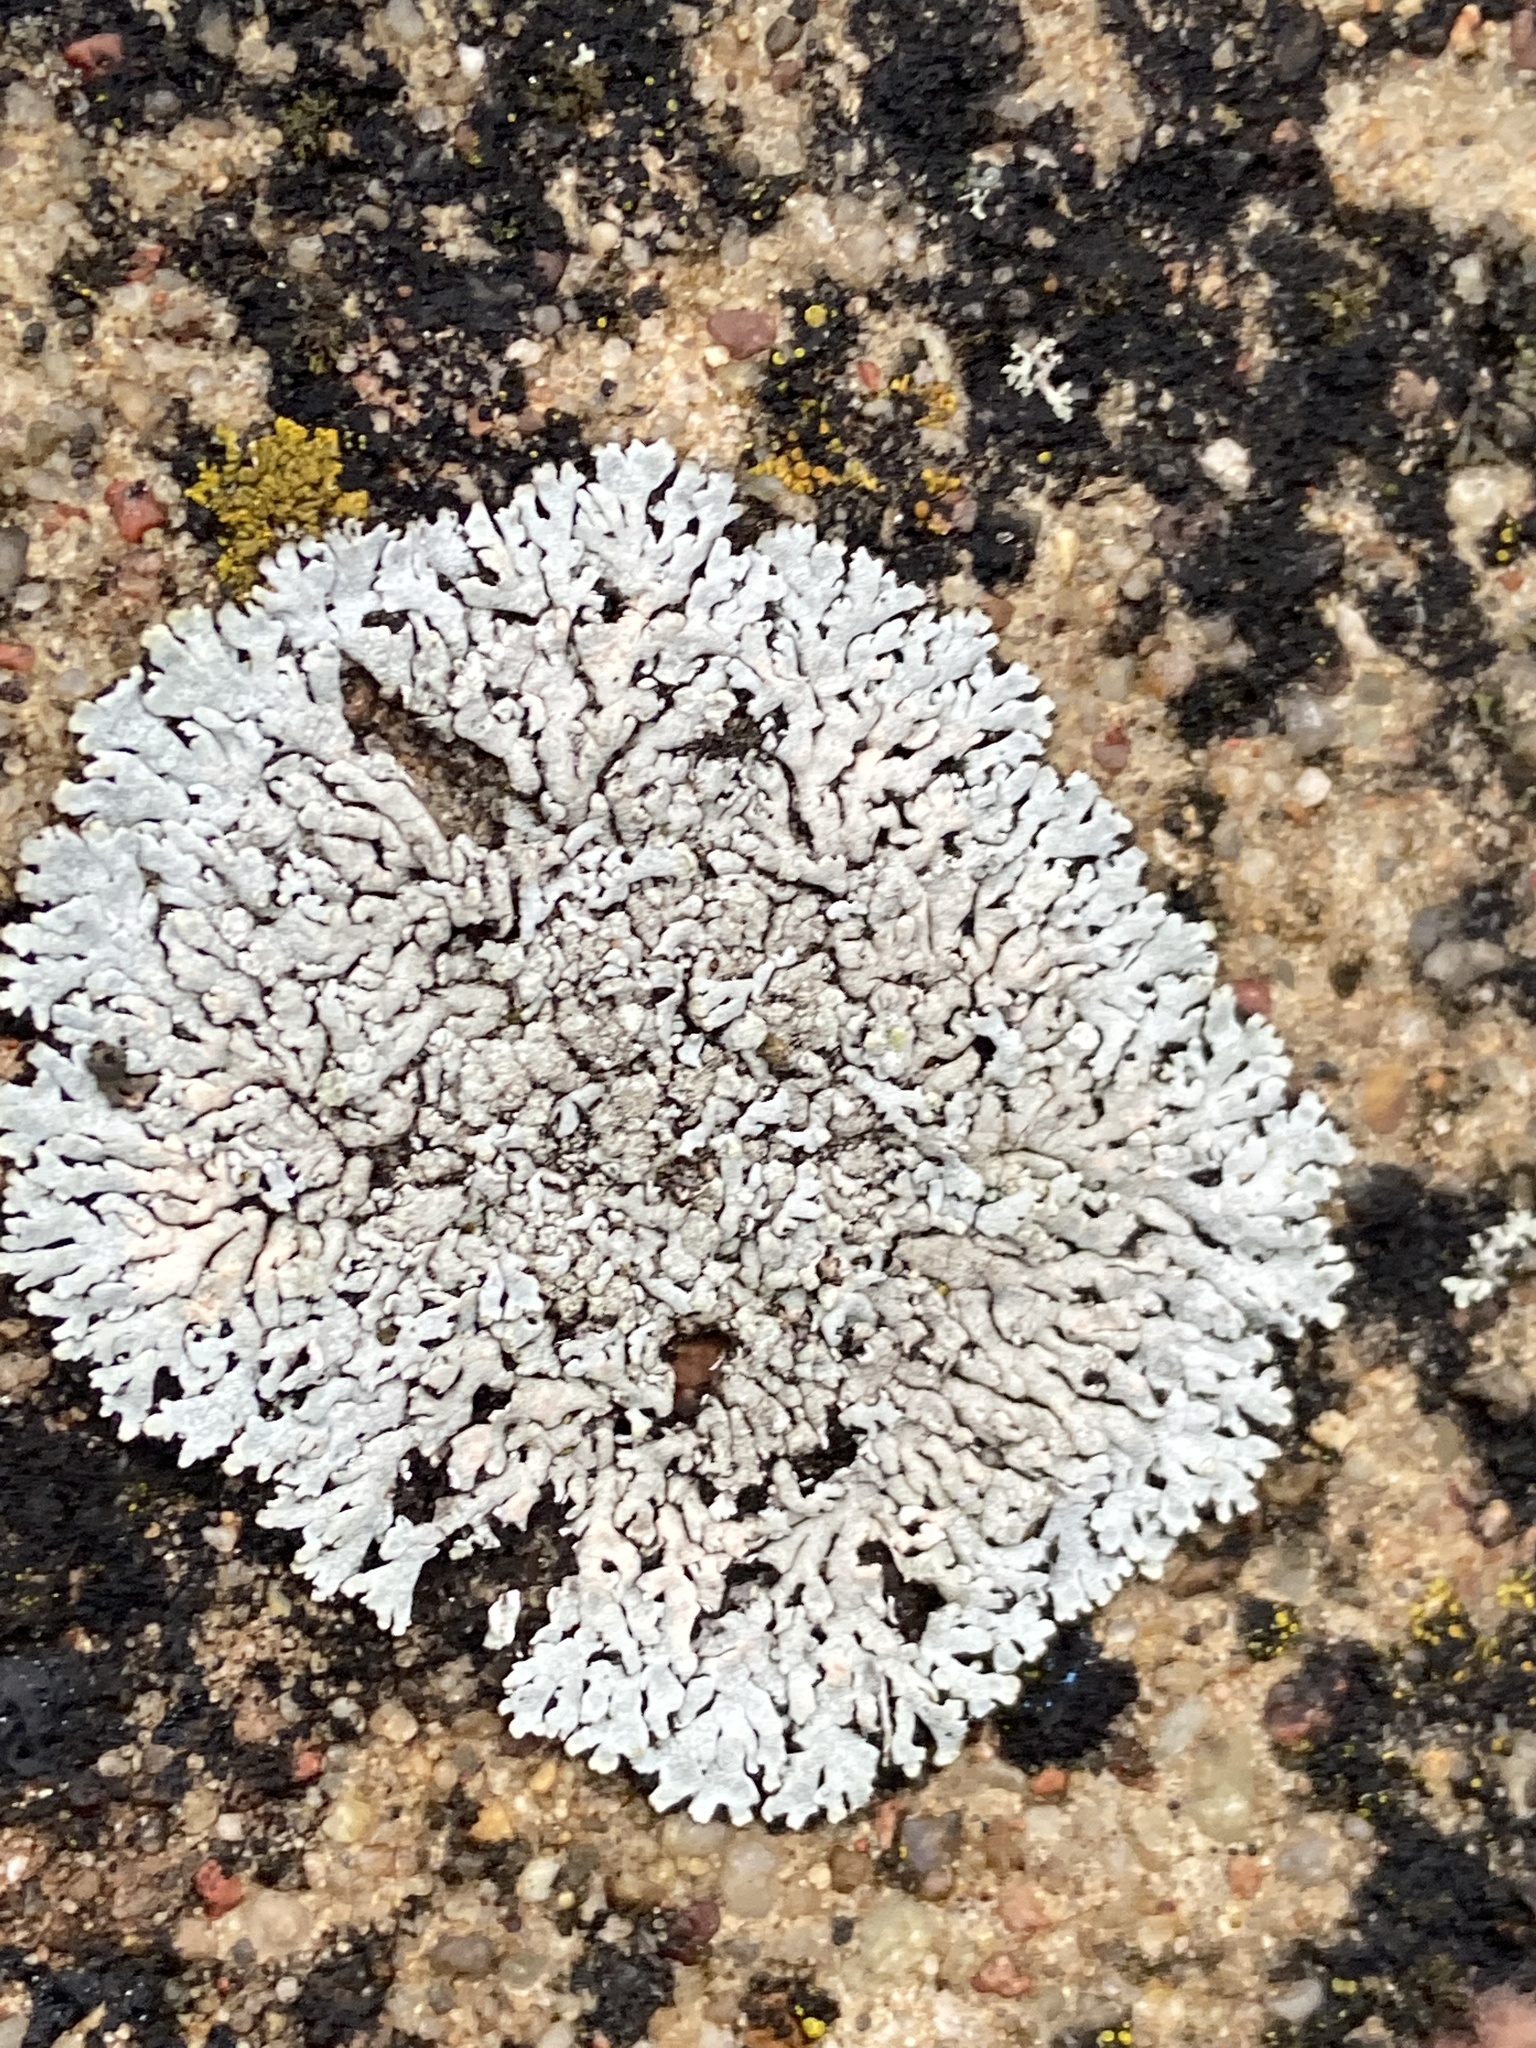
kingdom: Fungi
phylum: Ascomycota
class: Lecanoromycetes
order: Caliciales
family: Physciaceae
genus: Physcia
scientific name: Physcia caesia
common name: Blue-gray rosette lichen
